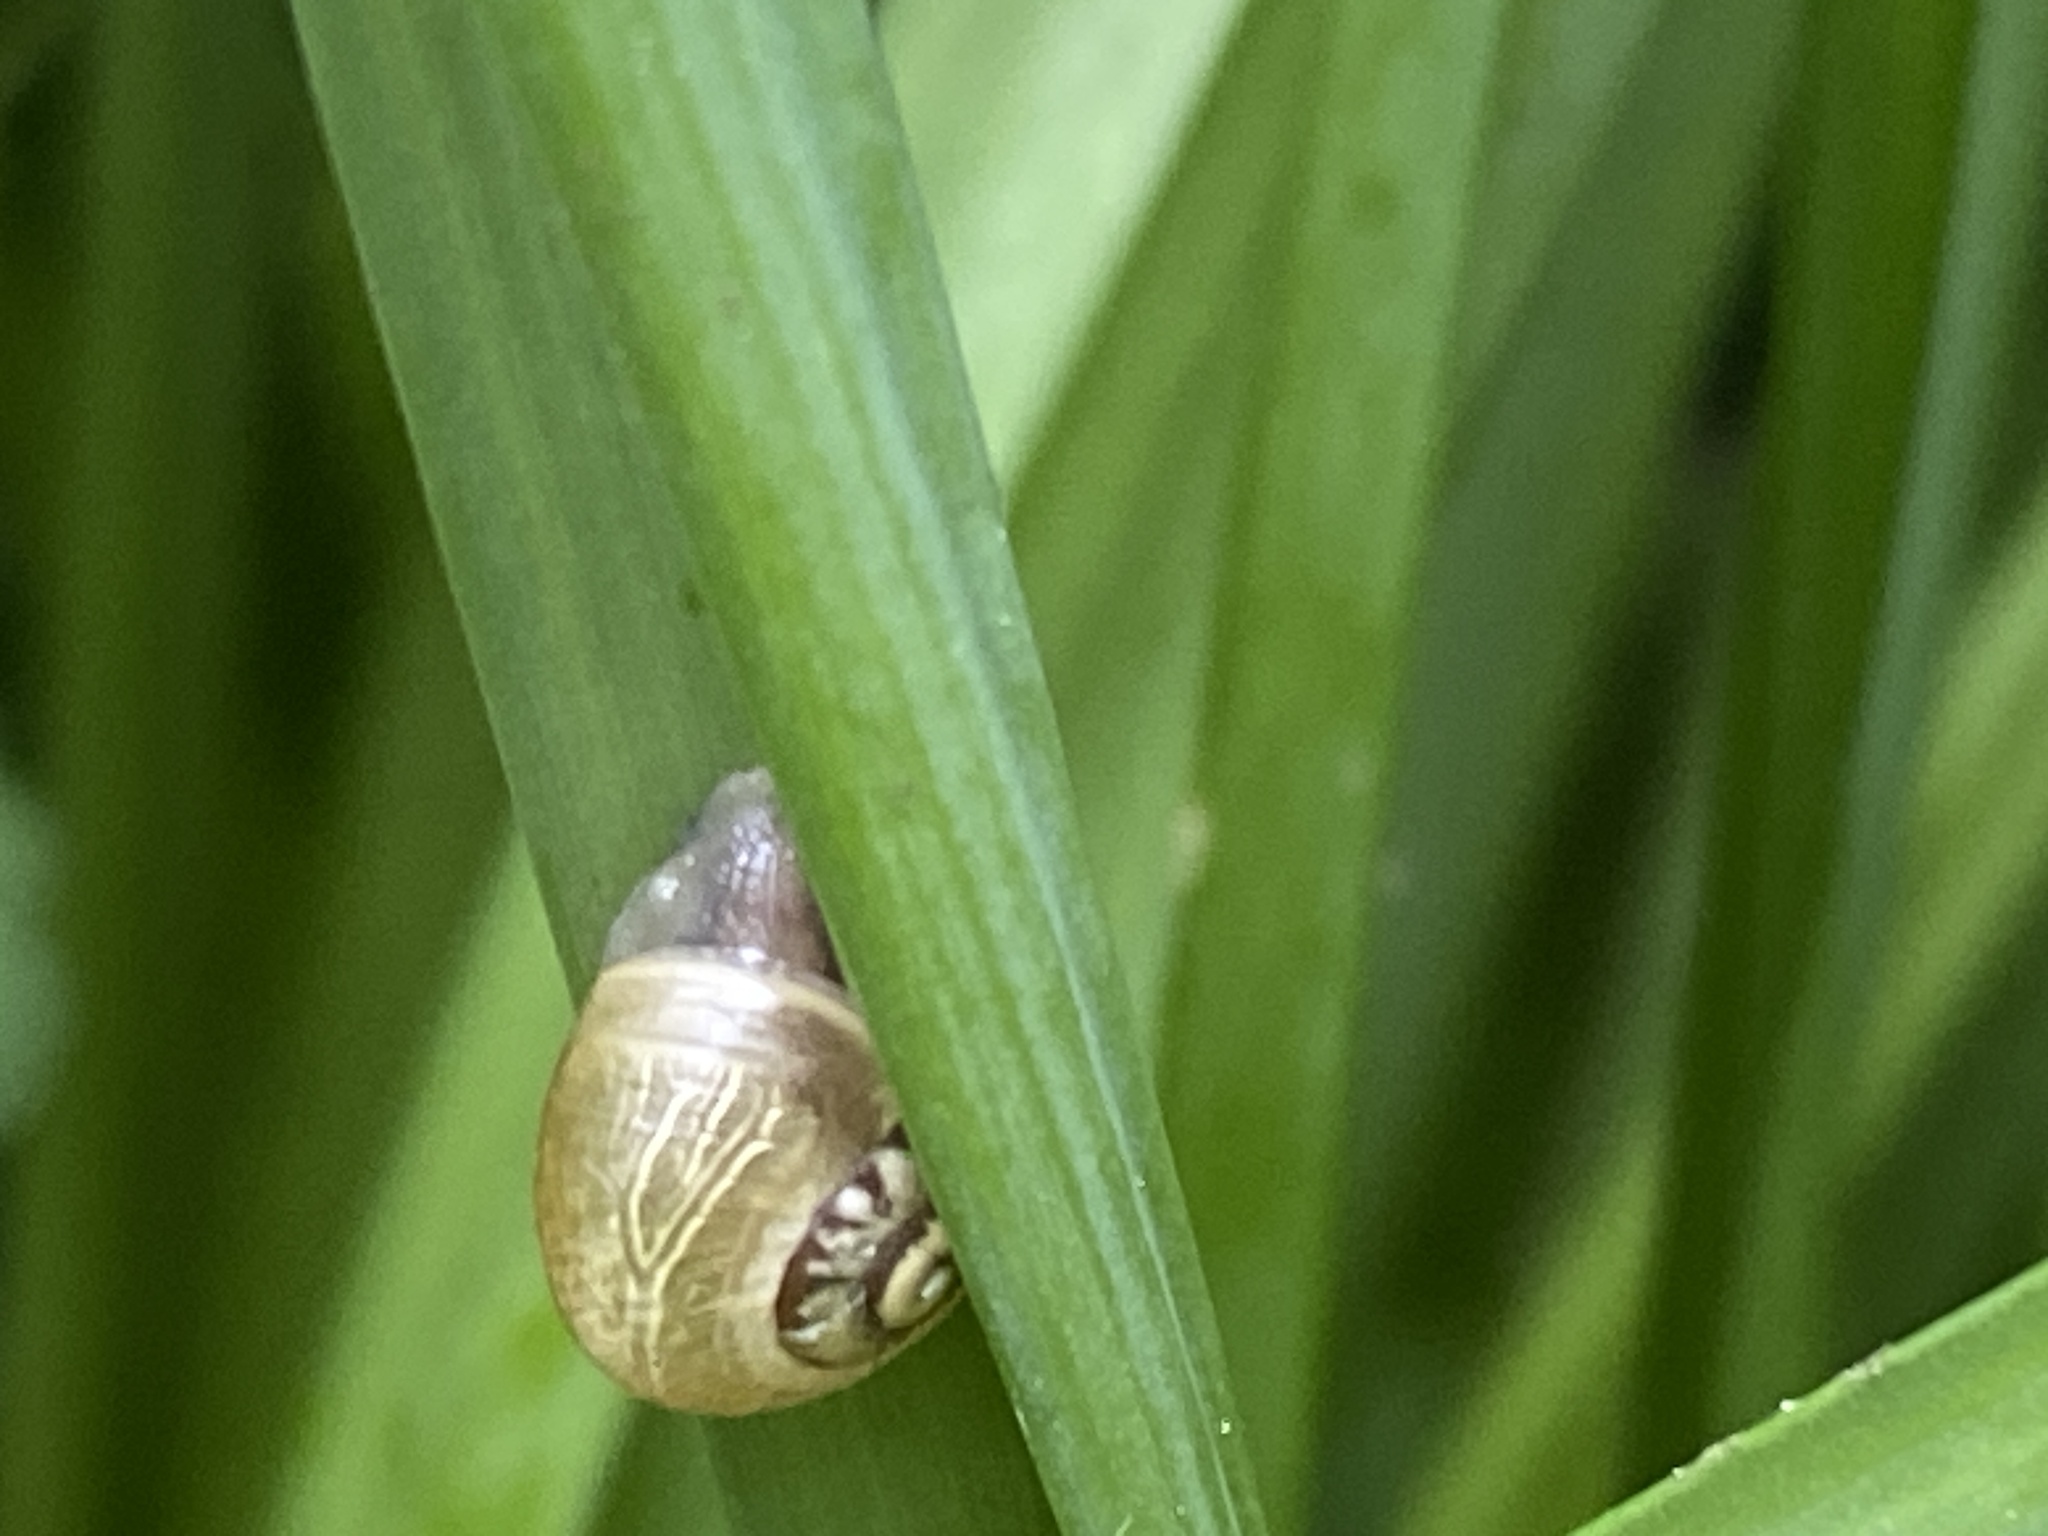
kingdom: Animalia
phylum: Mollusca
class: Gastropoda
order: Stylommatophora
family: Hygromiidae
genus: Monacha
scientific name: Monacha cantiana
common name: Kentish snail
